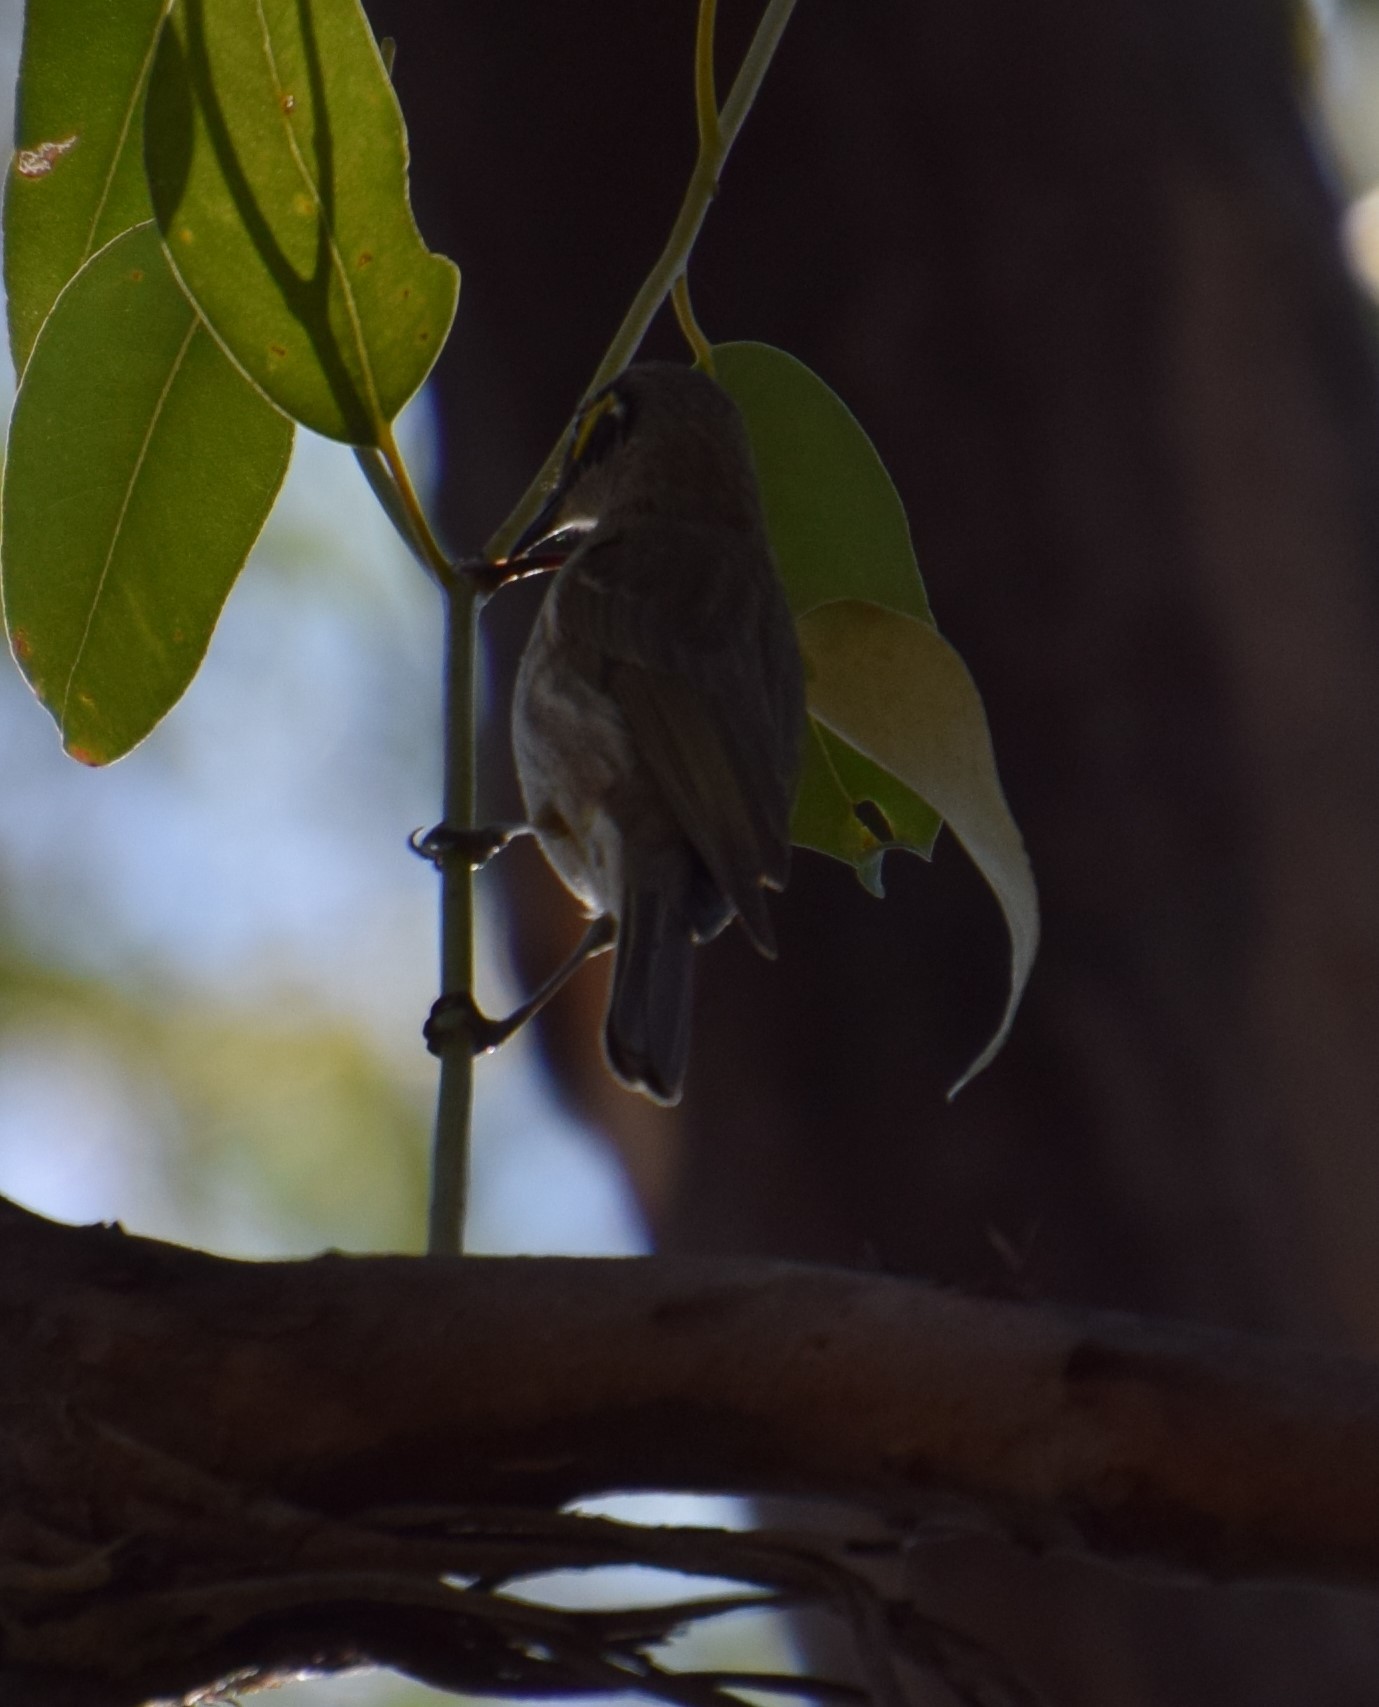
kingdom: Animalia
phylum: Chordata
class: Aves
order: Passeriformes
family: Meliphagidae
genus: Caligavis
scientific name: Caligavis chrysops
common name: Yellow-faced honeyeater
